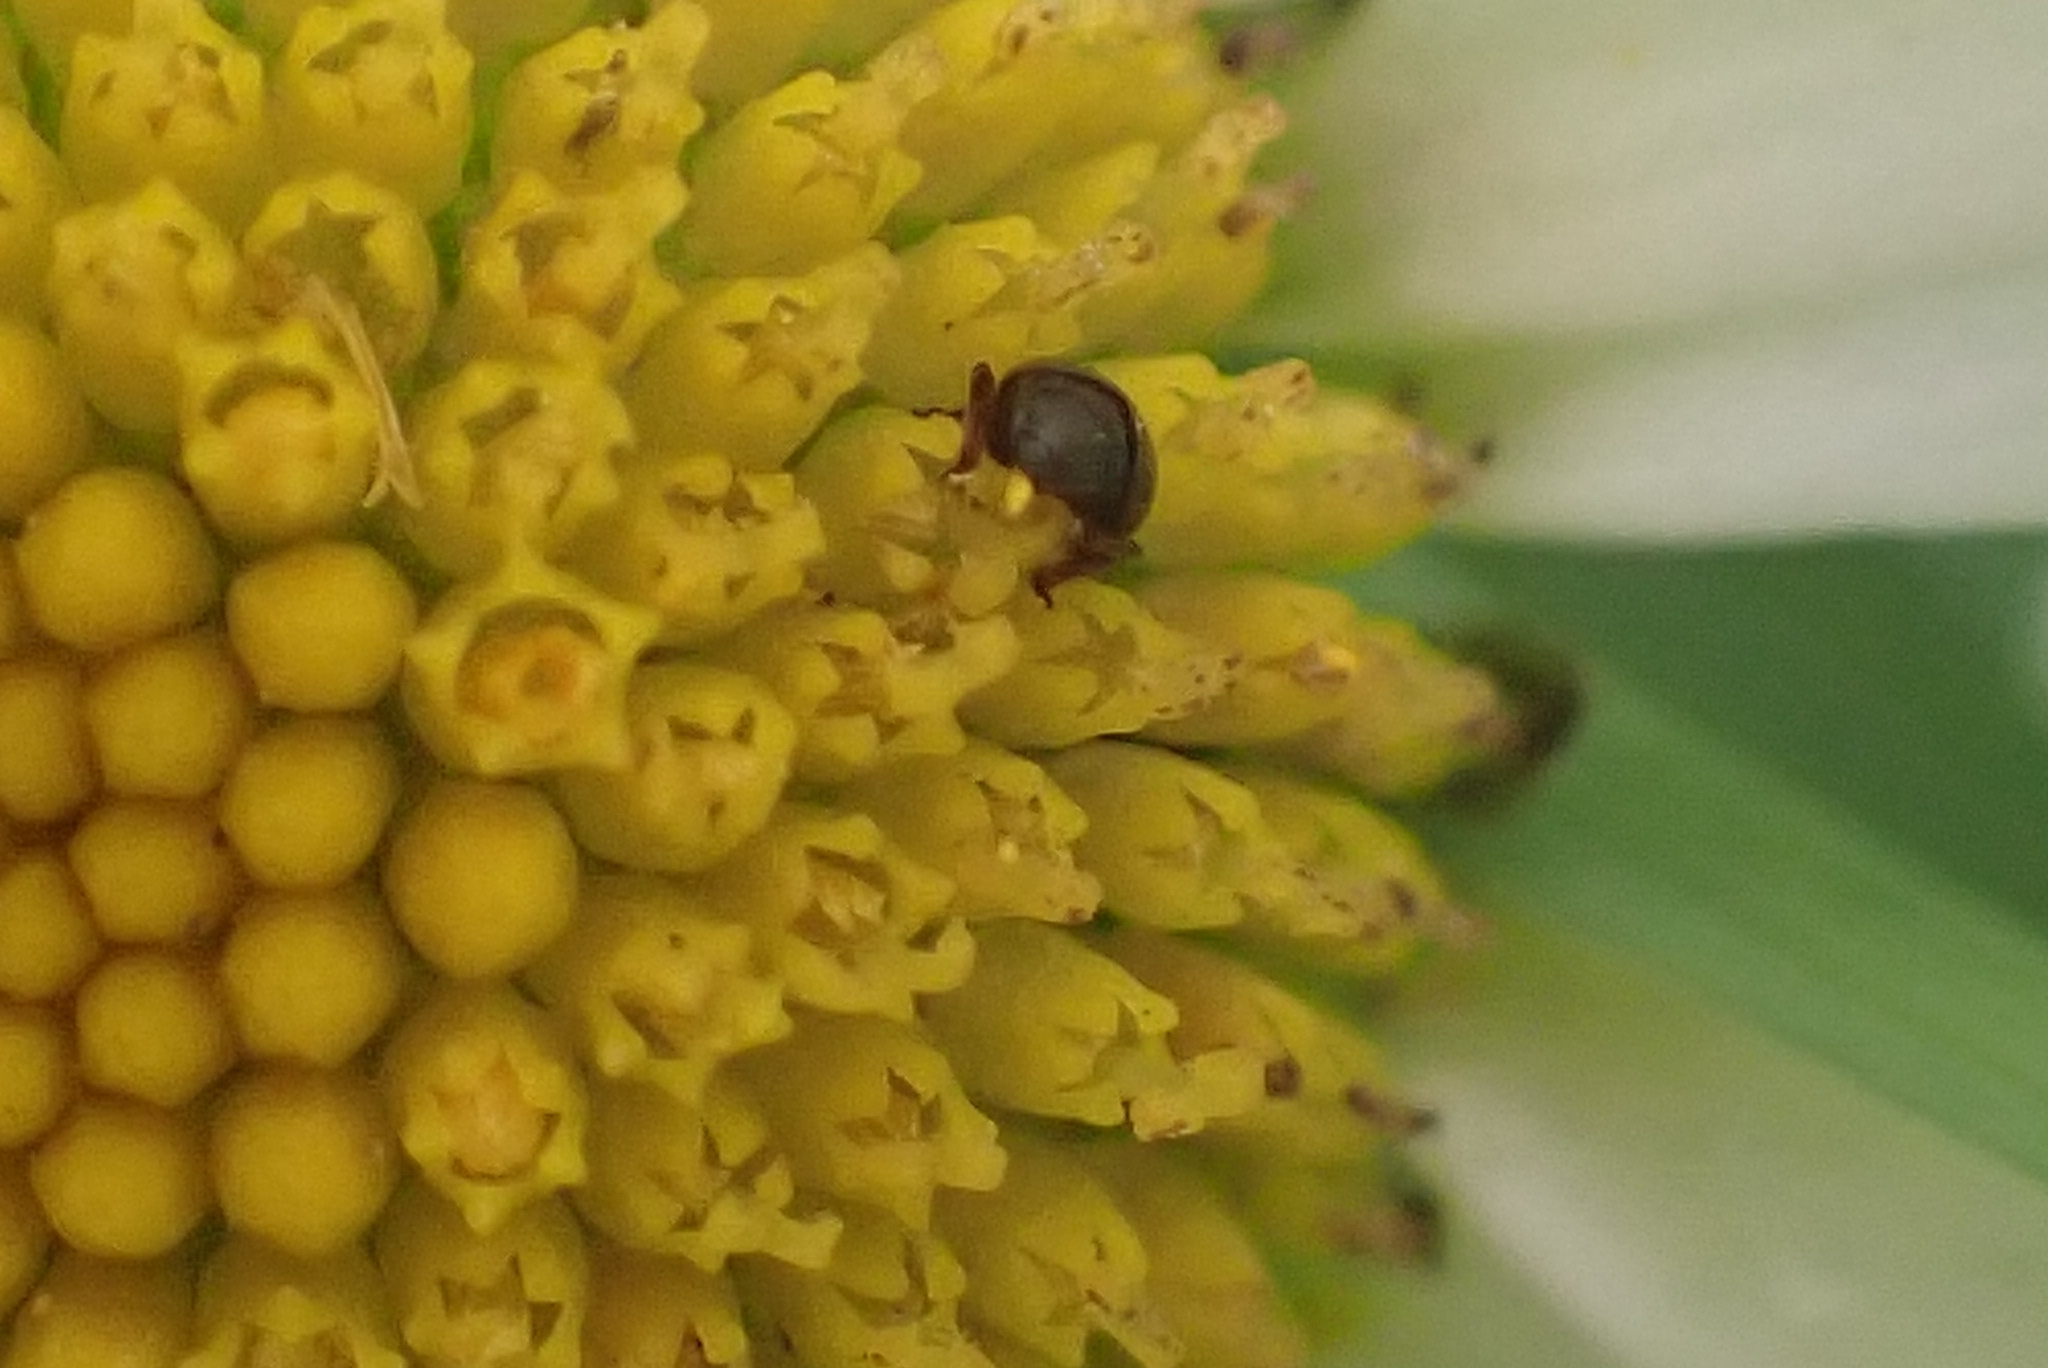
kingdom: Animalia
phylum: Arthropoda
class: Insecta
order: Coleoptera
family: Nitidulidae
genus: Brassicogethes
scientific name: Brassicogethes aeneus
